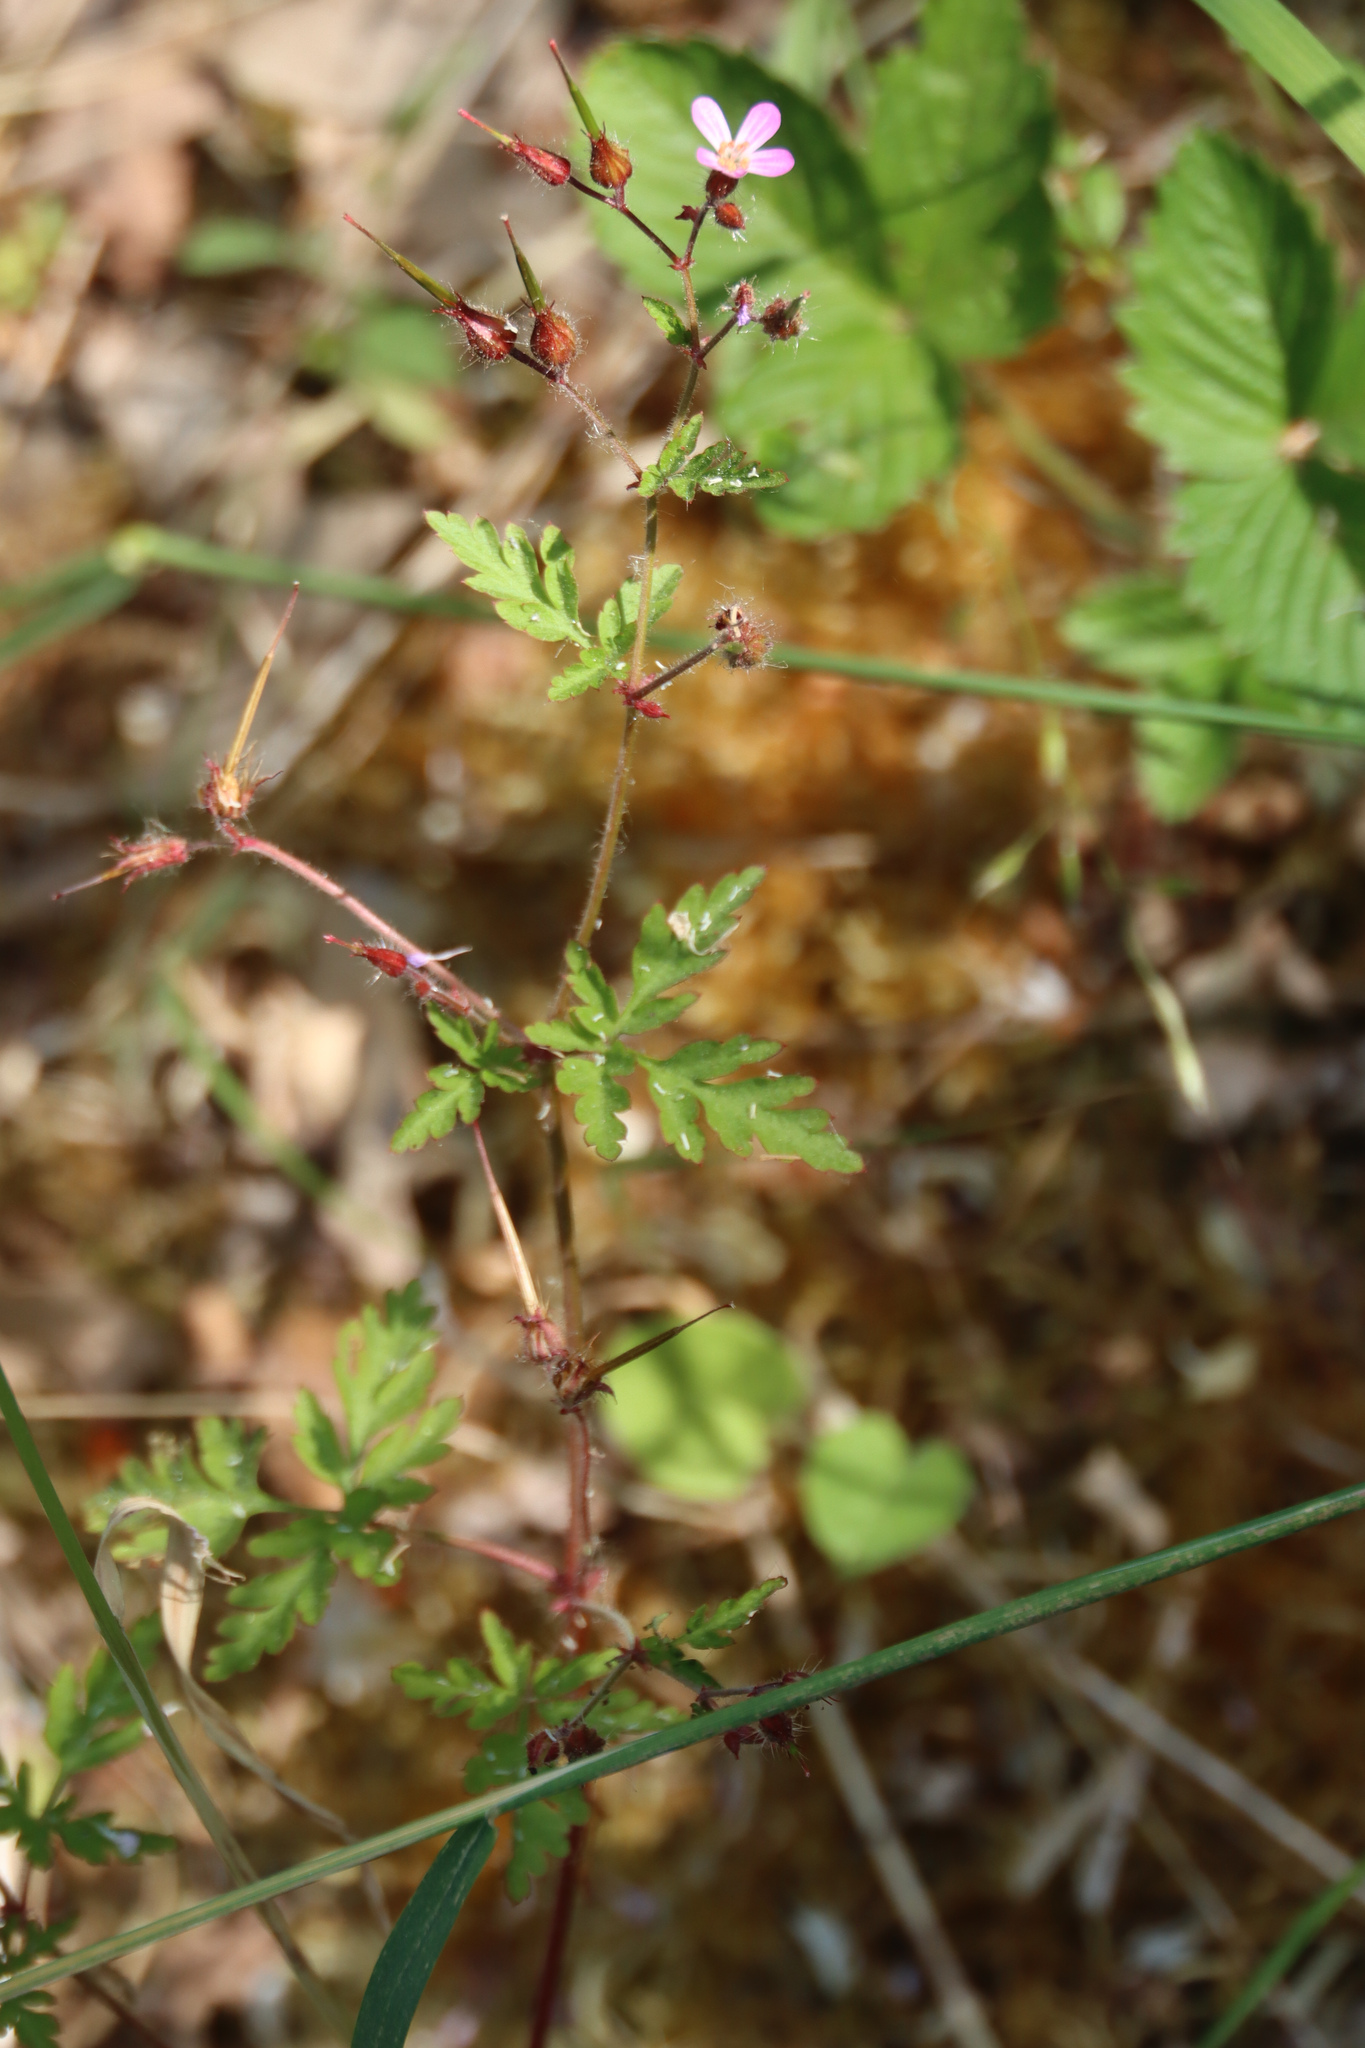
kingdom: Plantae
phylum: Tracheophyta
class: Magnoliopsida
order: Geraniales
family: Geraniaceae
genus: Geranium
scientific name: Geranium robertianum
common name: Herb-robert
